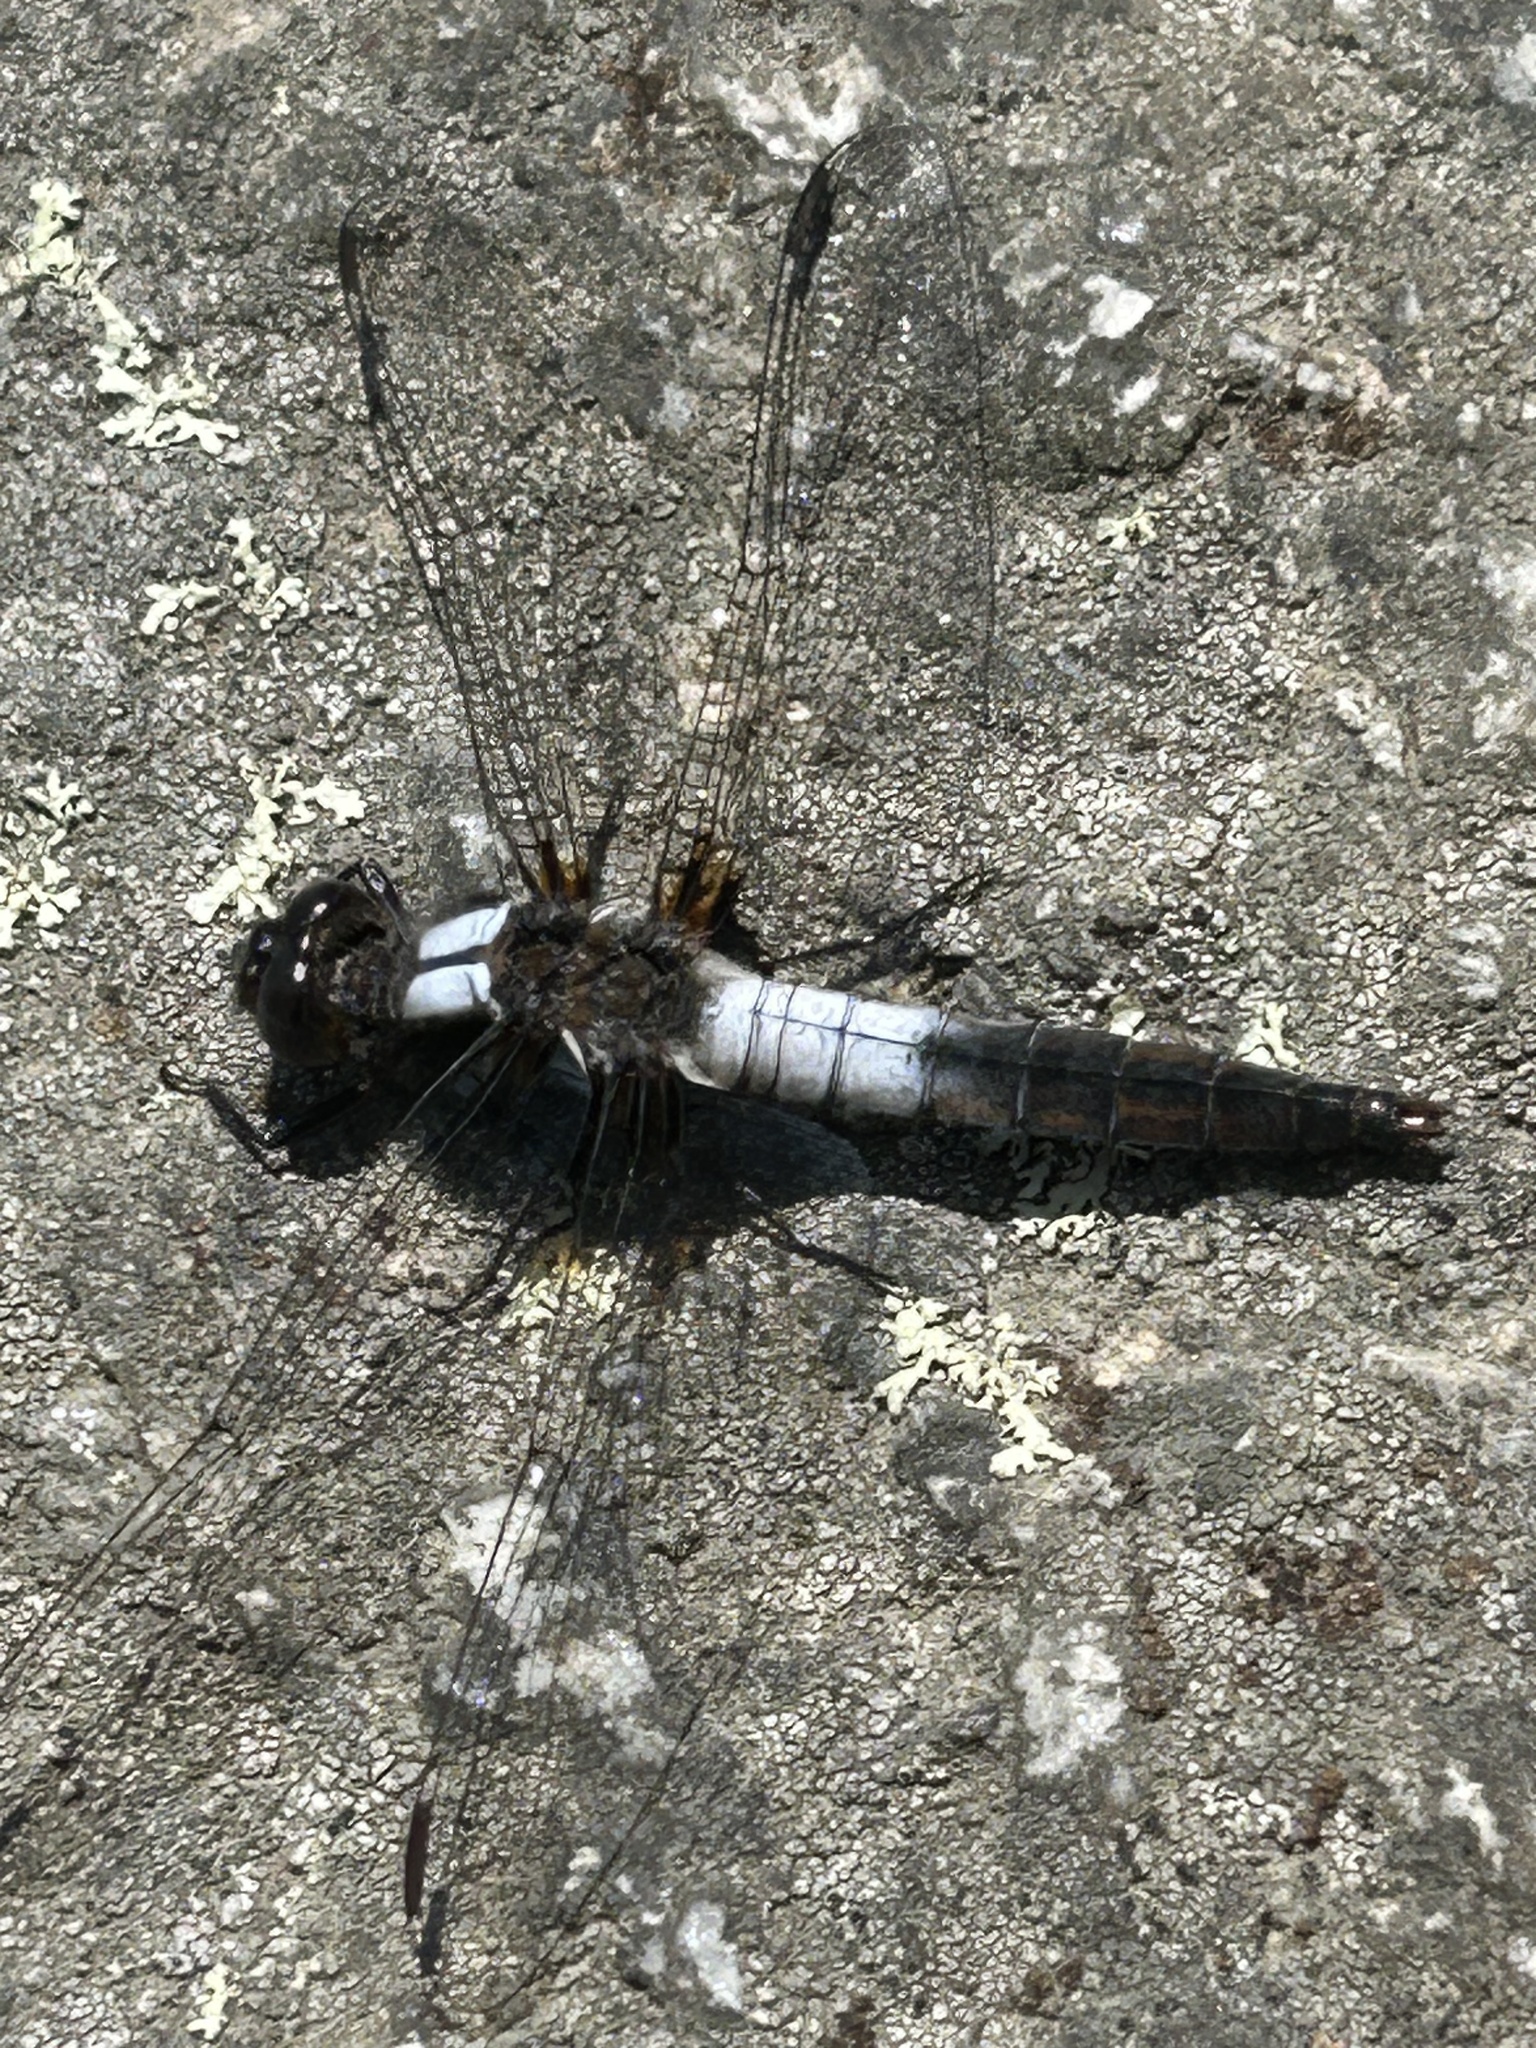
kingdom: Animalia
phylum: Arthropoda
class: Insecta
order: Odonata
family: Libellulidae
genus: Ladona
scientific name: Ladona julia
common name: Chalk-fronted corporal
